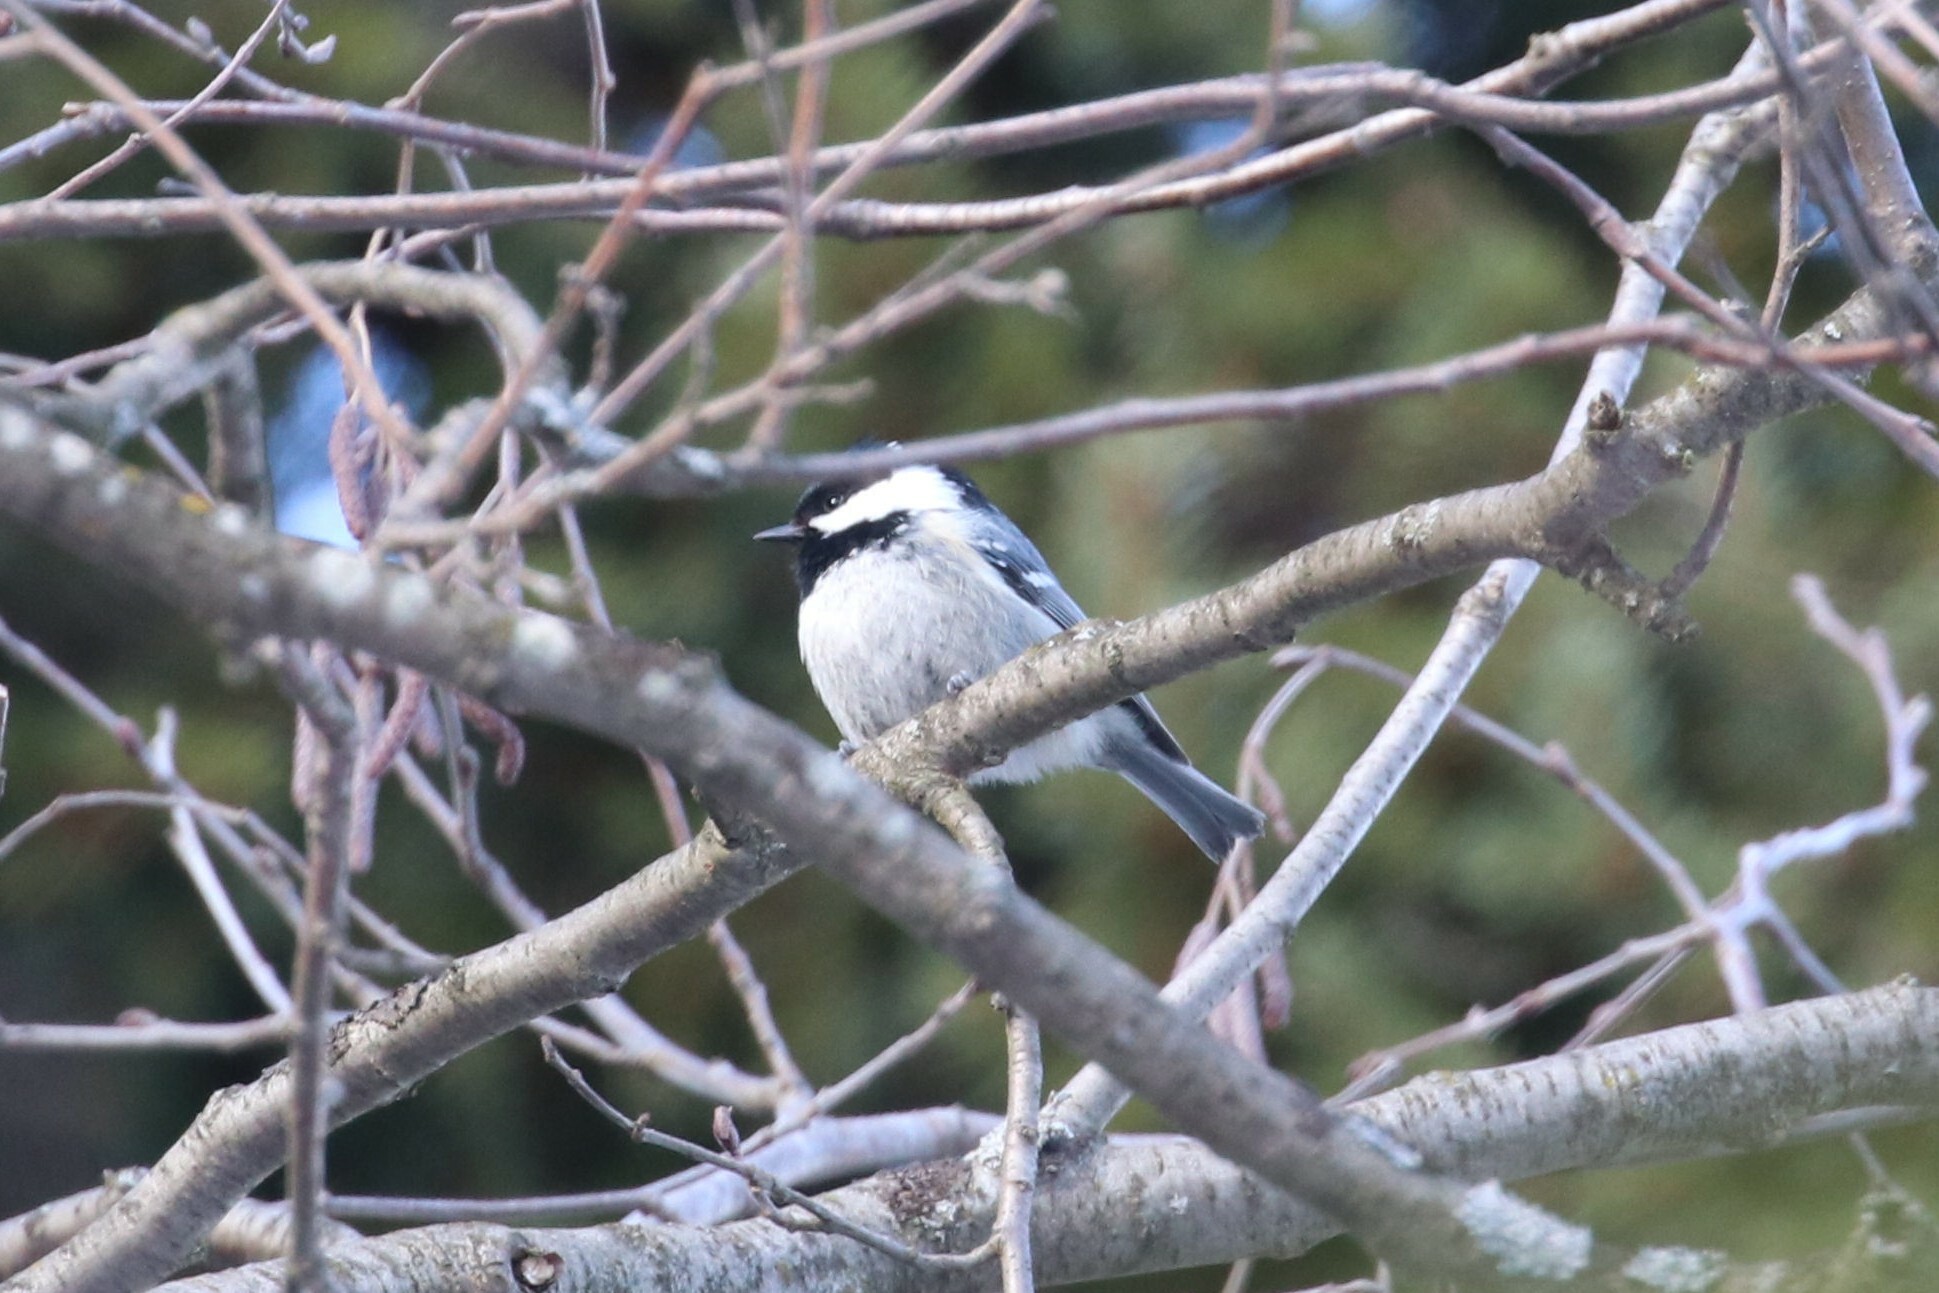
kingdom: Animalia
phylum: Chordata
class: Aves
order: Passeriformes
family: Paridae
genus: Periparus
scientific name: Periparus ater
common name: Coal tit
